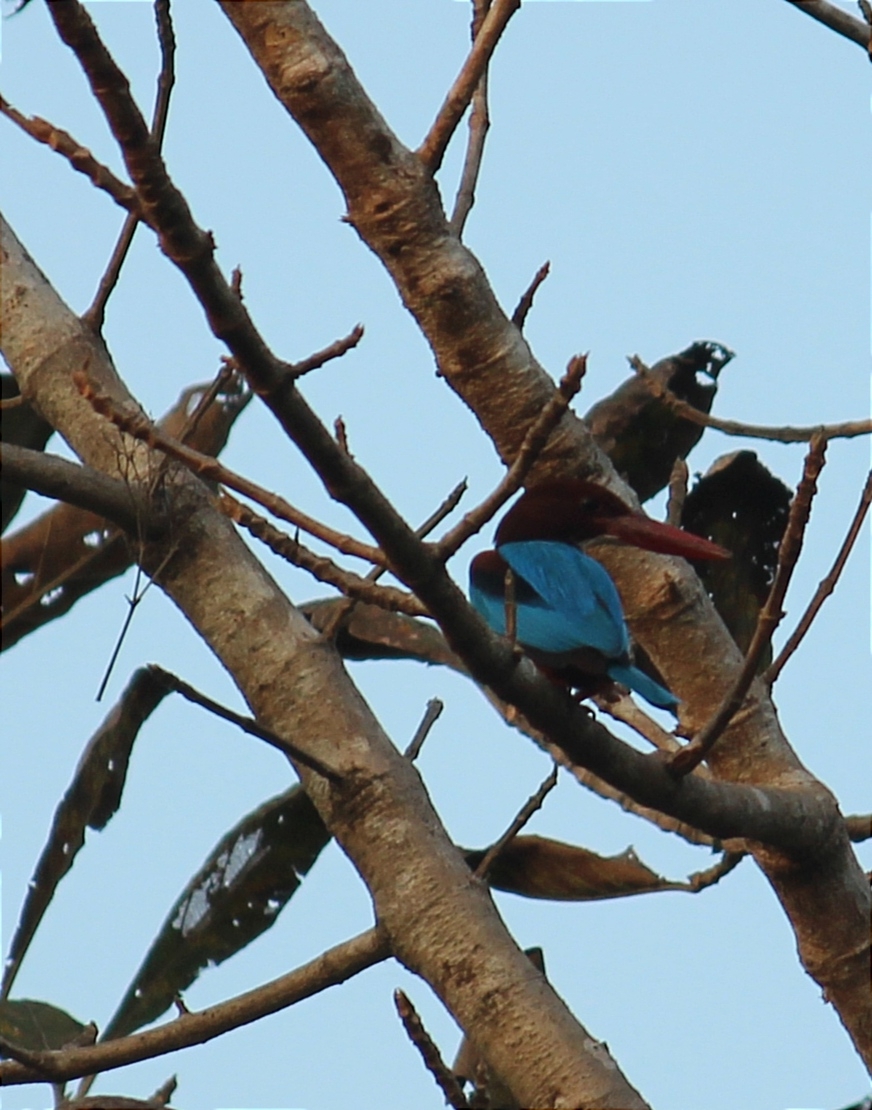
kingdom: Animalia
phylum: Chordata
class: Aves
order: Coraciiformes
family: Alcedinidae
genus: Halcyon
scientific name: Halcyon smyrnensis
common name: White-throated kingfisher
